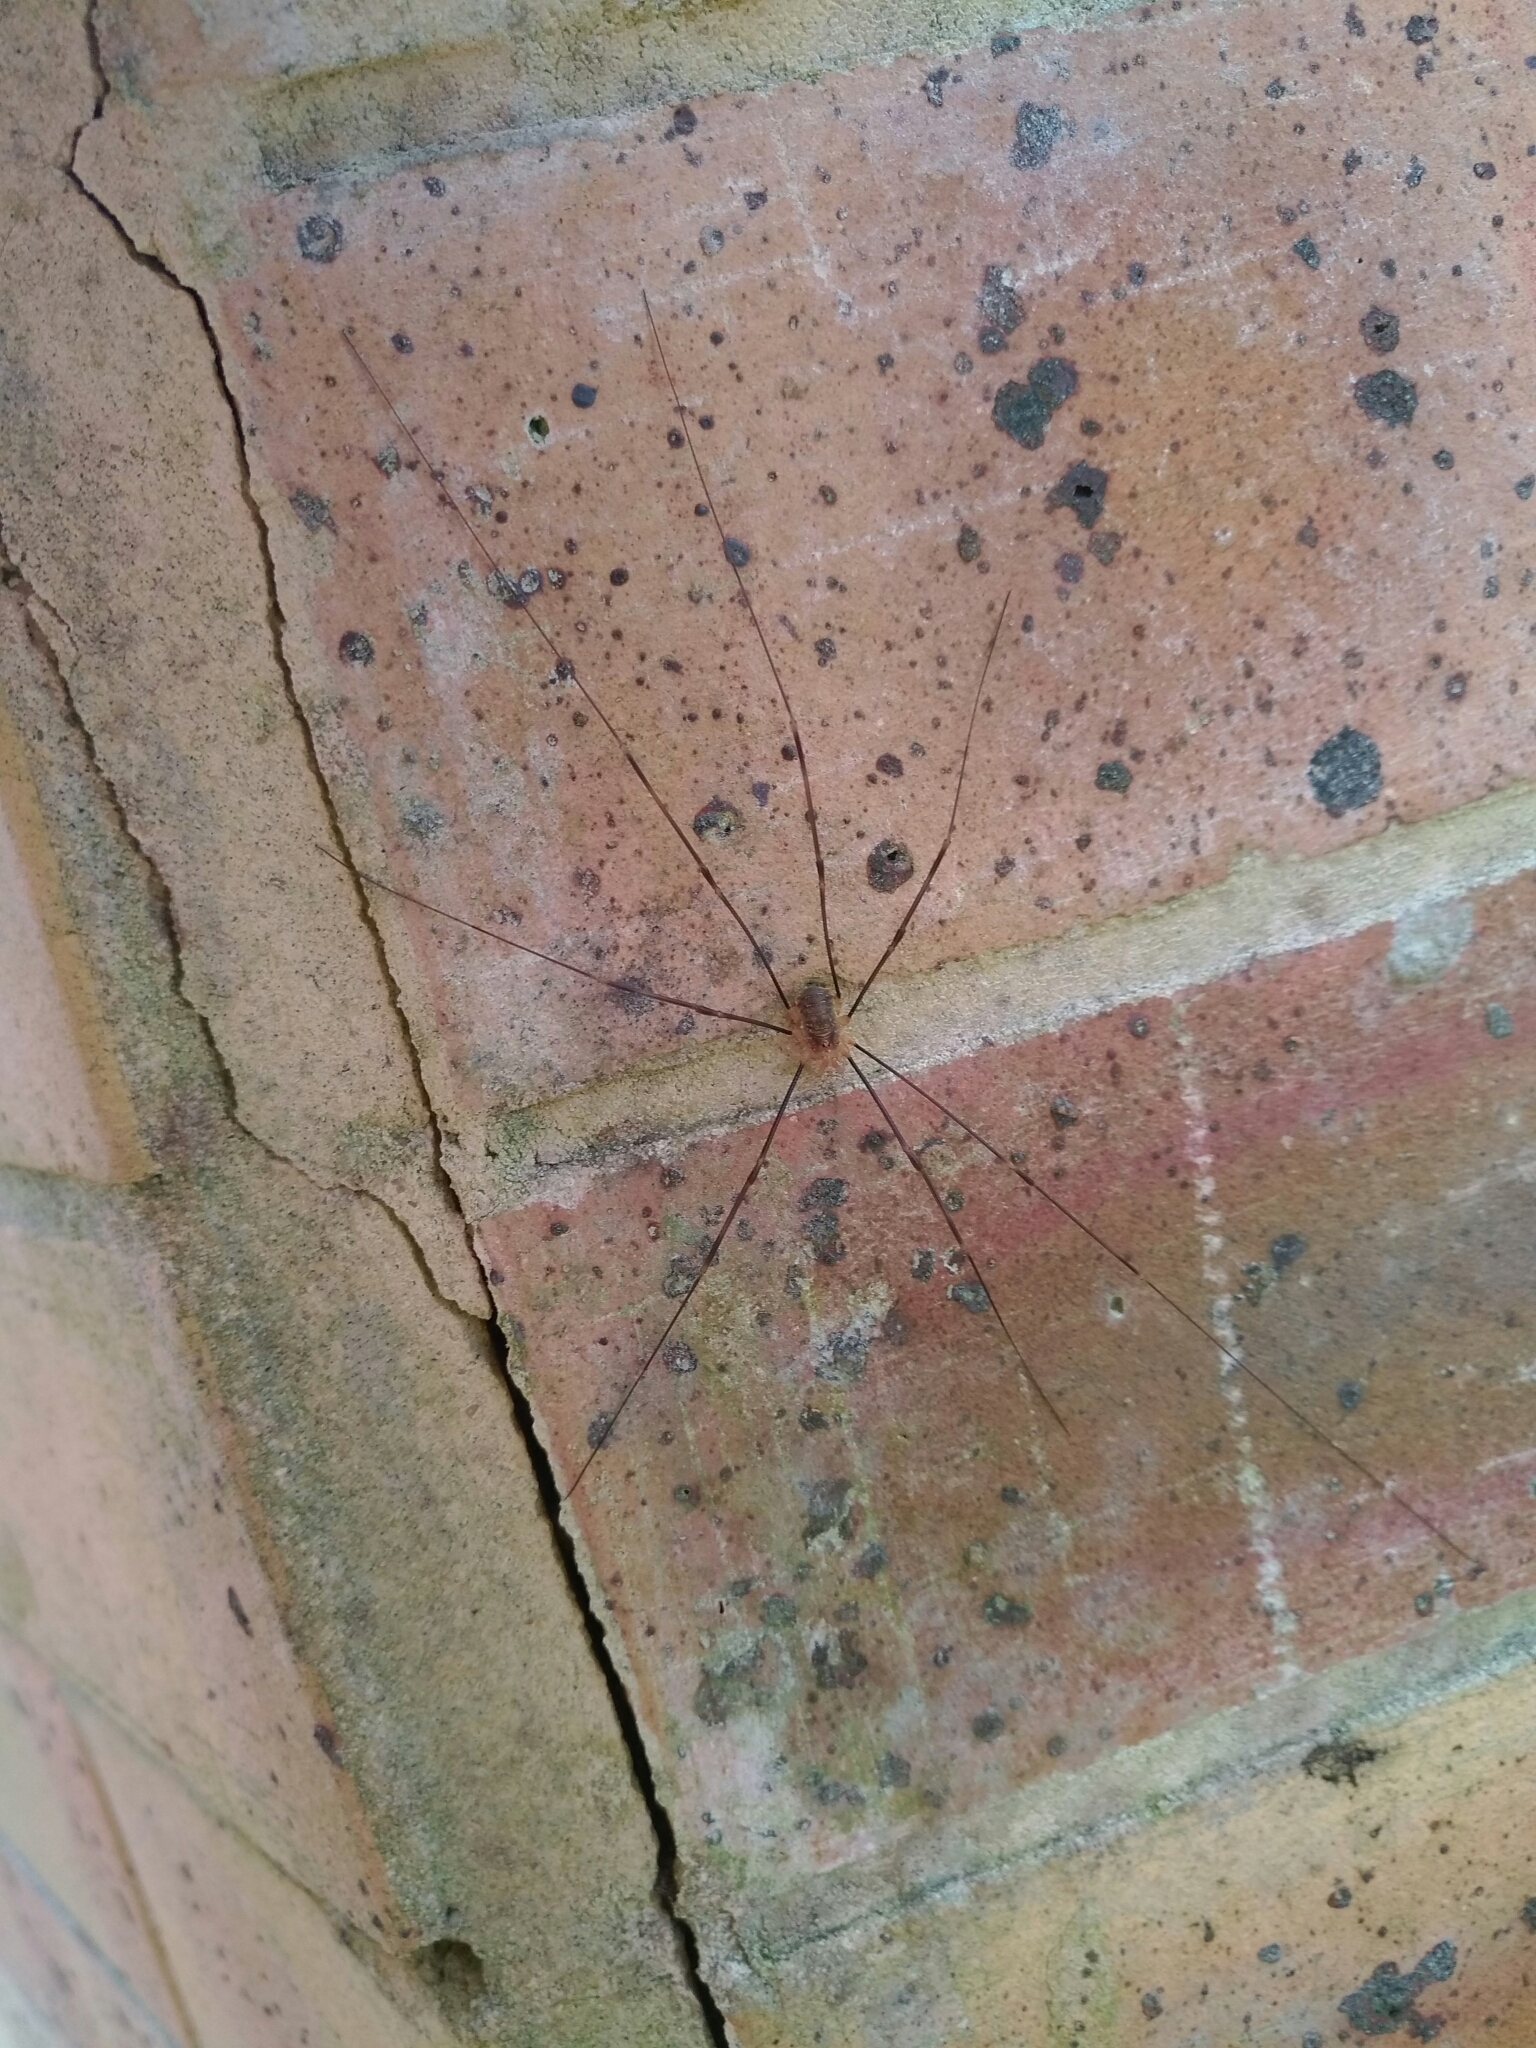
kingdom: Animalia
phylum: Arthropoda
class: Arachnida
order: Opiliones
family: Phalangiidae
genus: Opilio
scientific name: Opilio canestrinii
